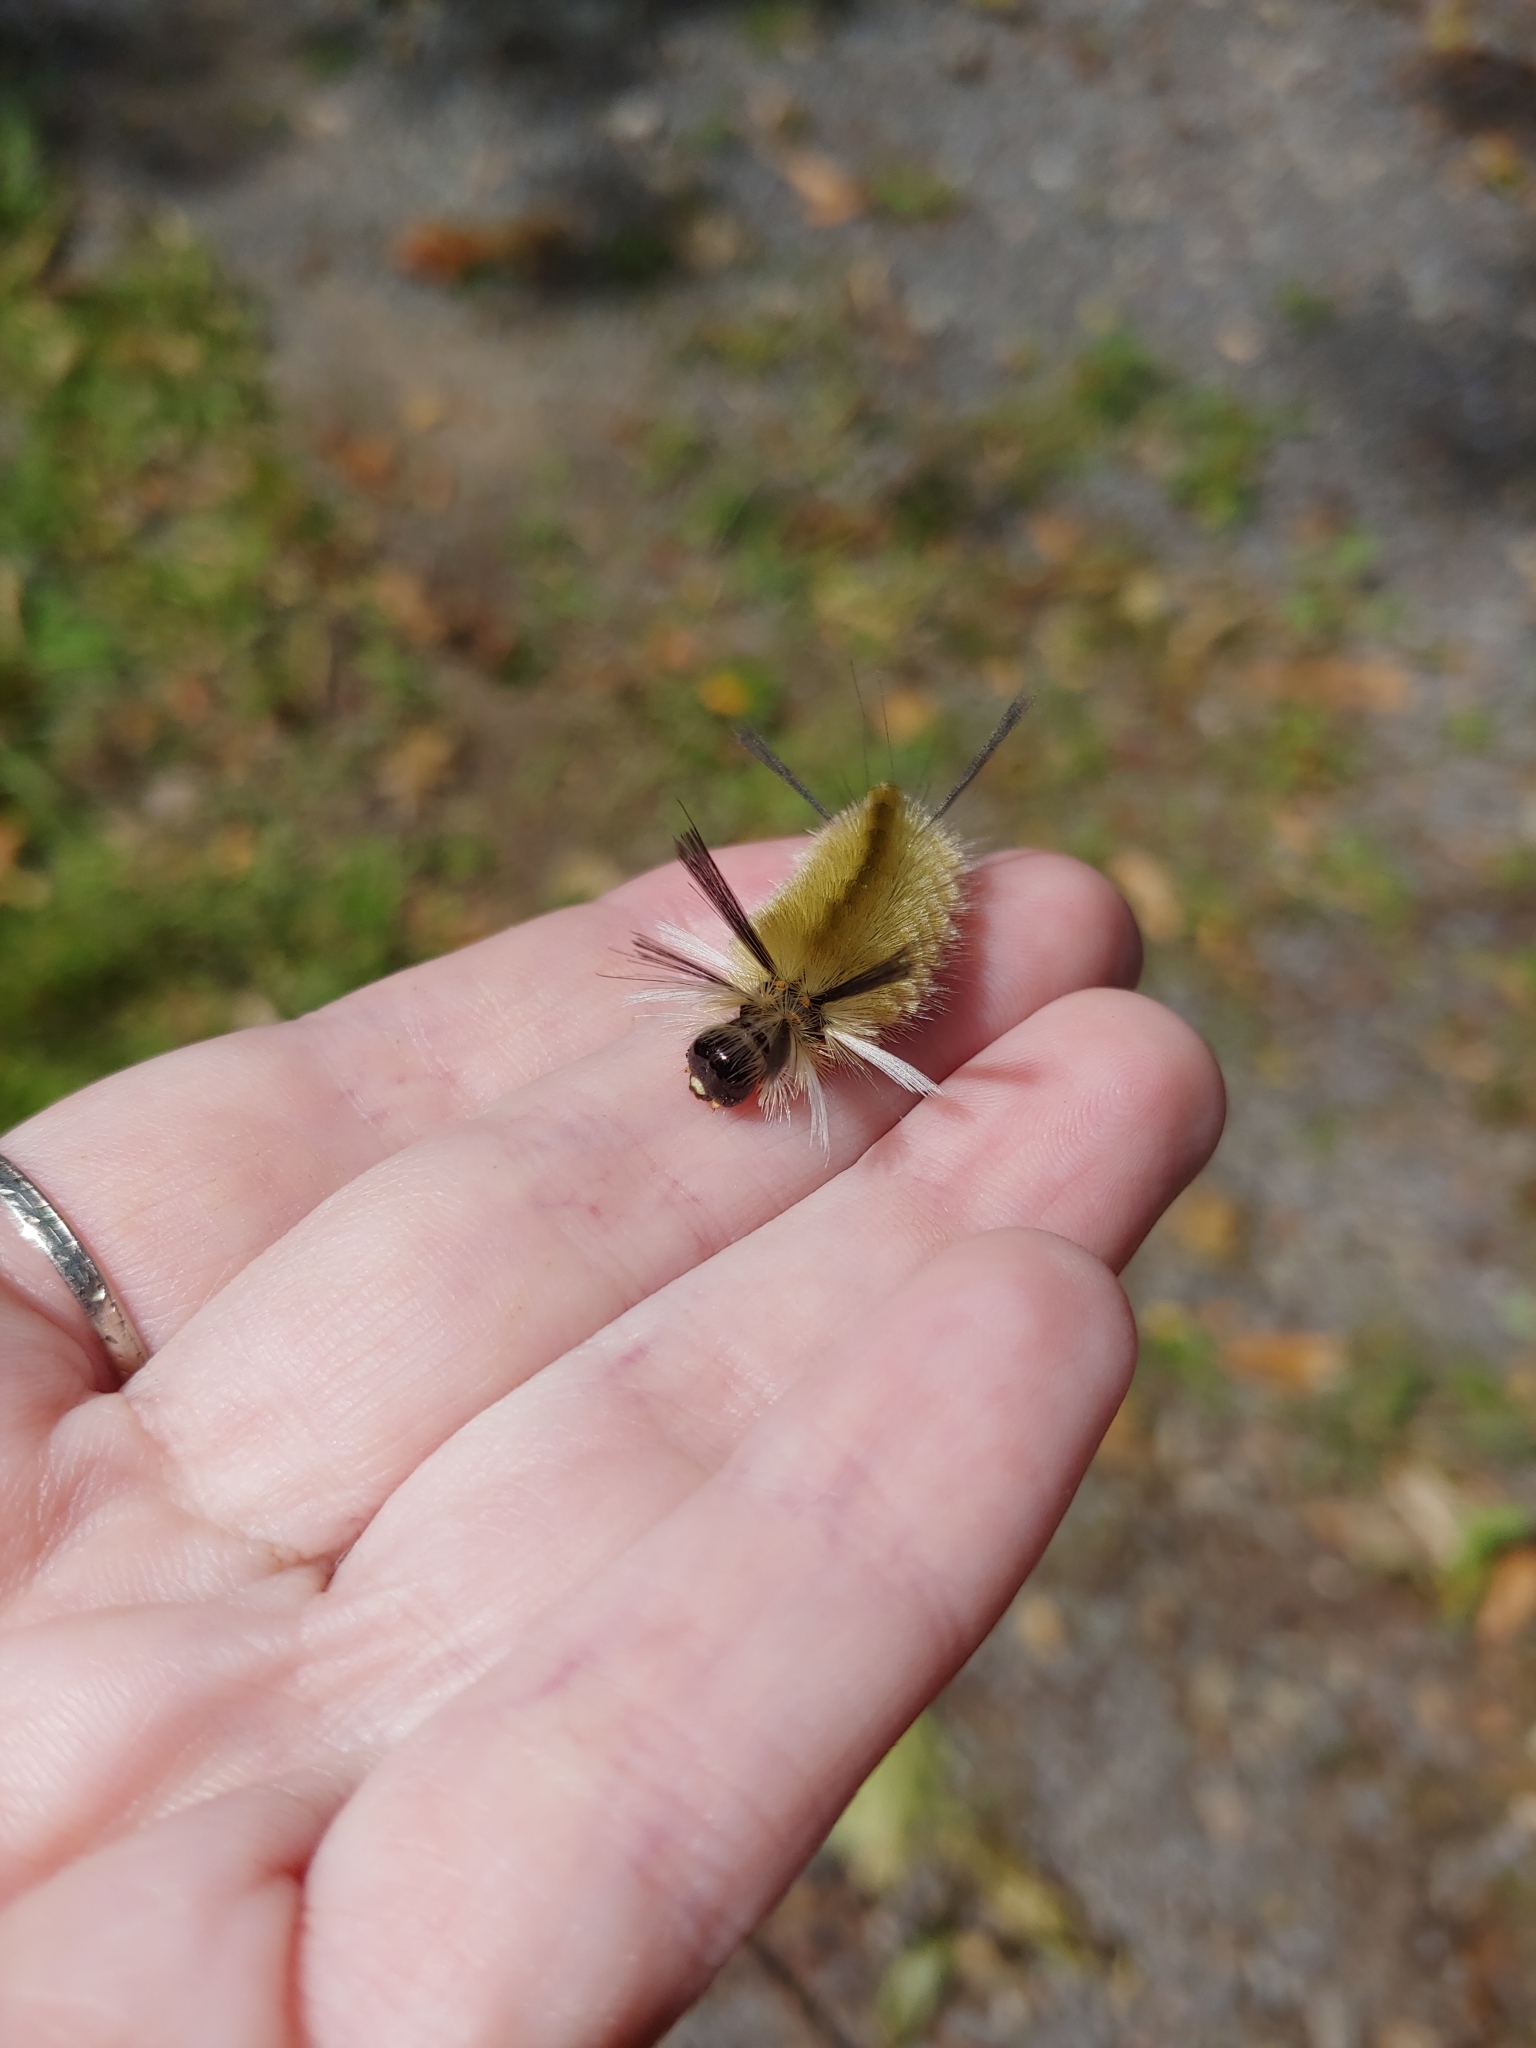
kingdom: Animalia
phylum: Arthropoda
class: Insecta
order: Lepidoptera
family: Erebidae
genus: Halysidota
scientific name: Halysidota tessellaris
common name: Banded tussock moth
